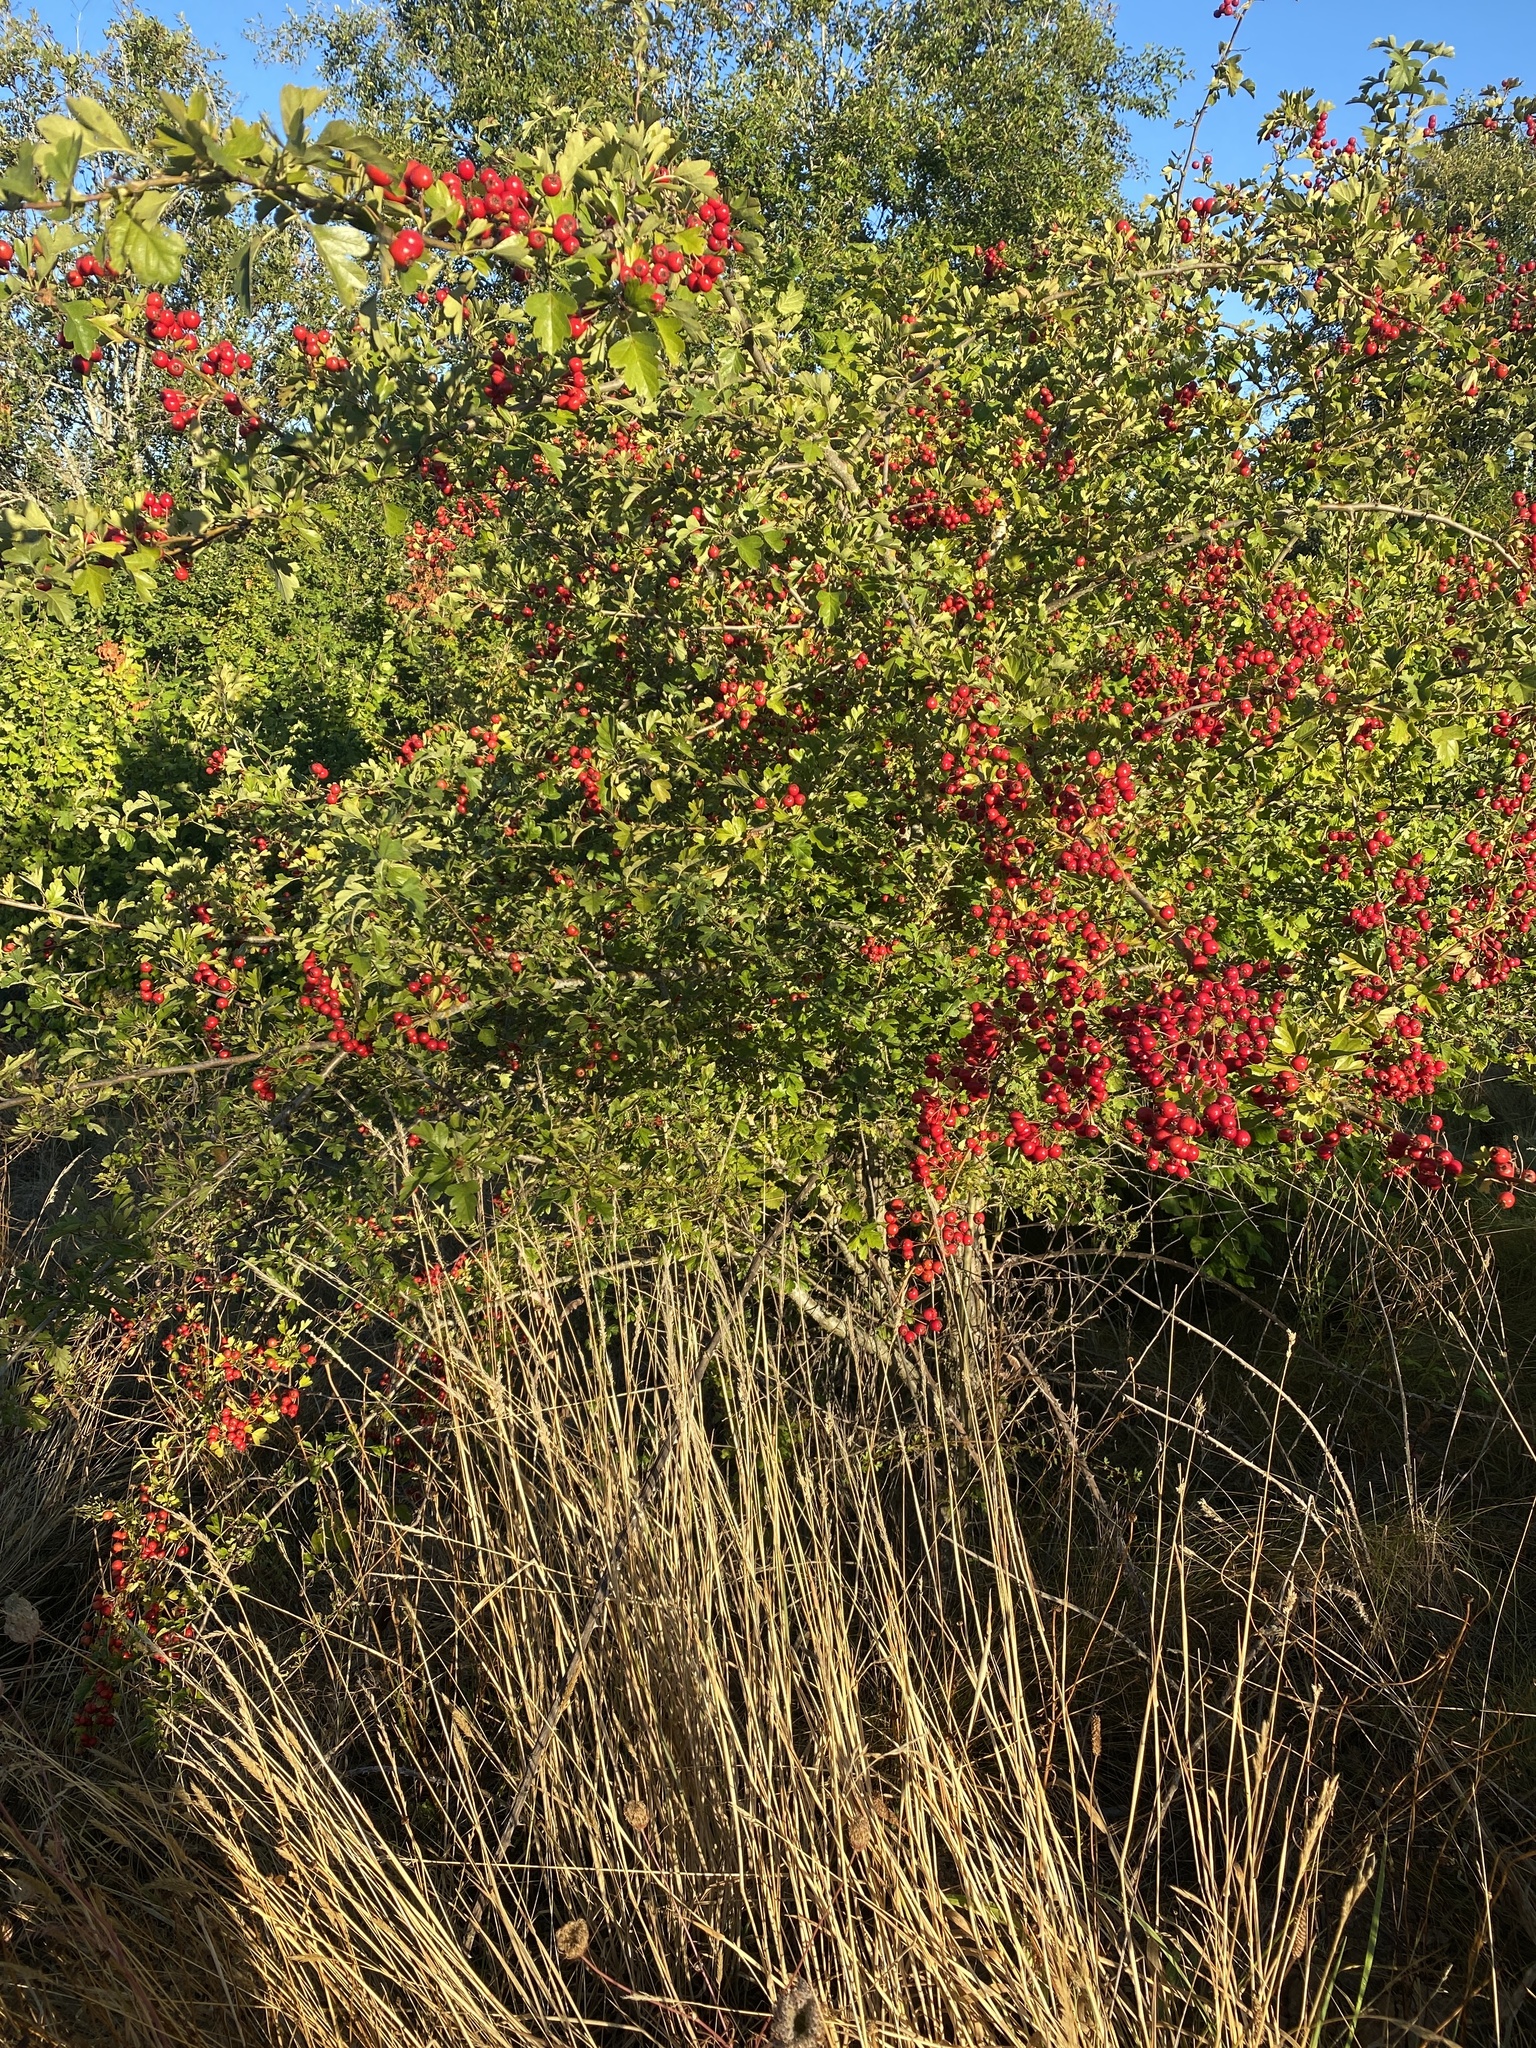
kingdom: Plantae
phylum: Tracheophyta
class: Magnoliopsida
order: Rosales
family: Rosaceae
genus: Crataegus
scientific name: Crataegus monogyna
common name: Hawthorn
